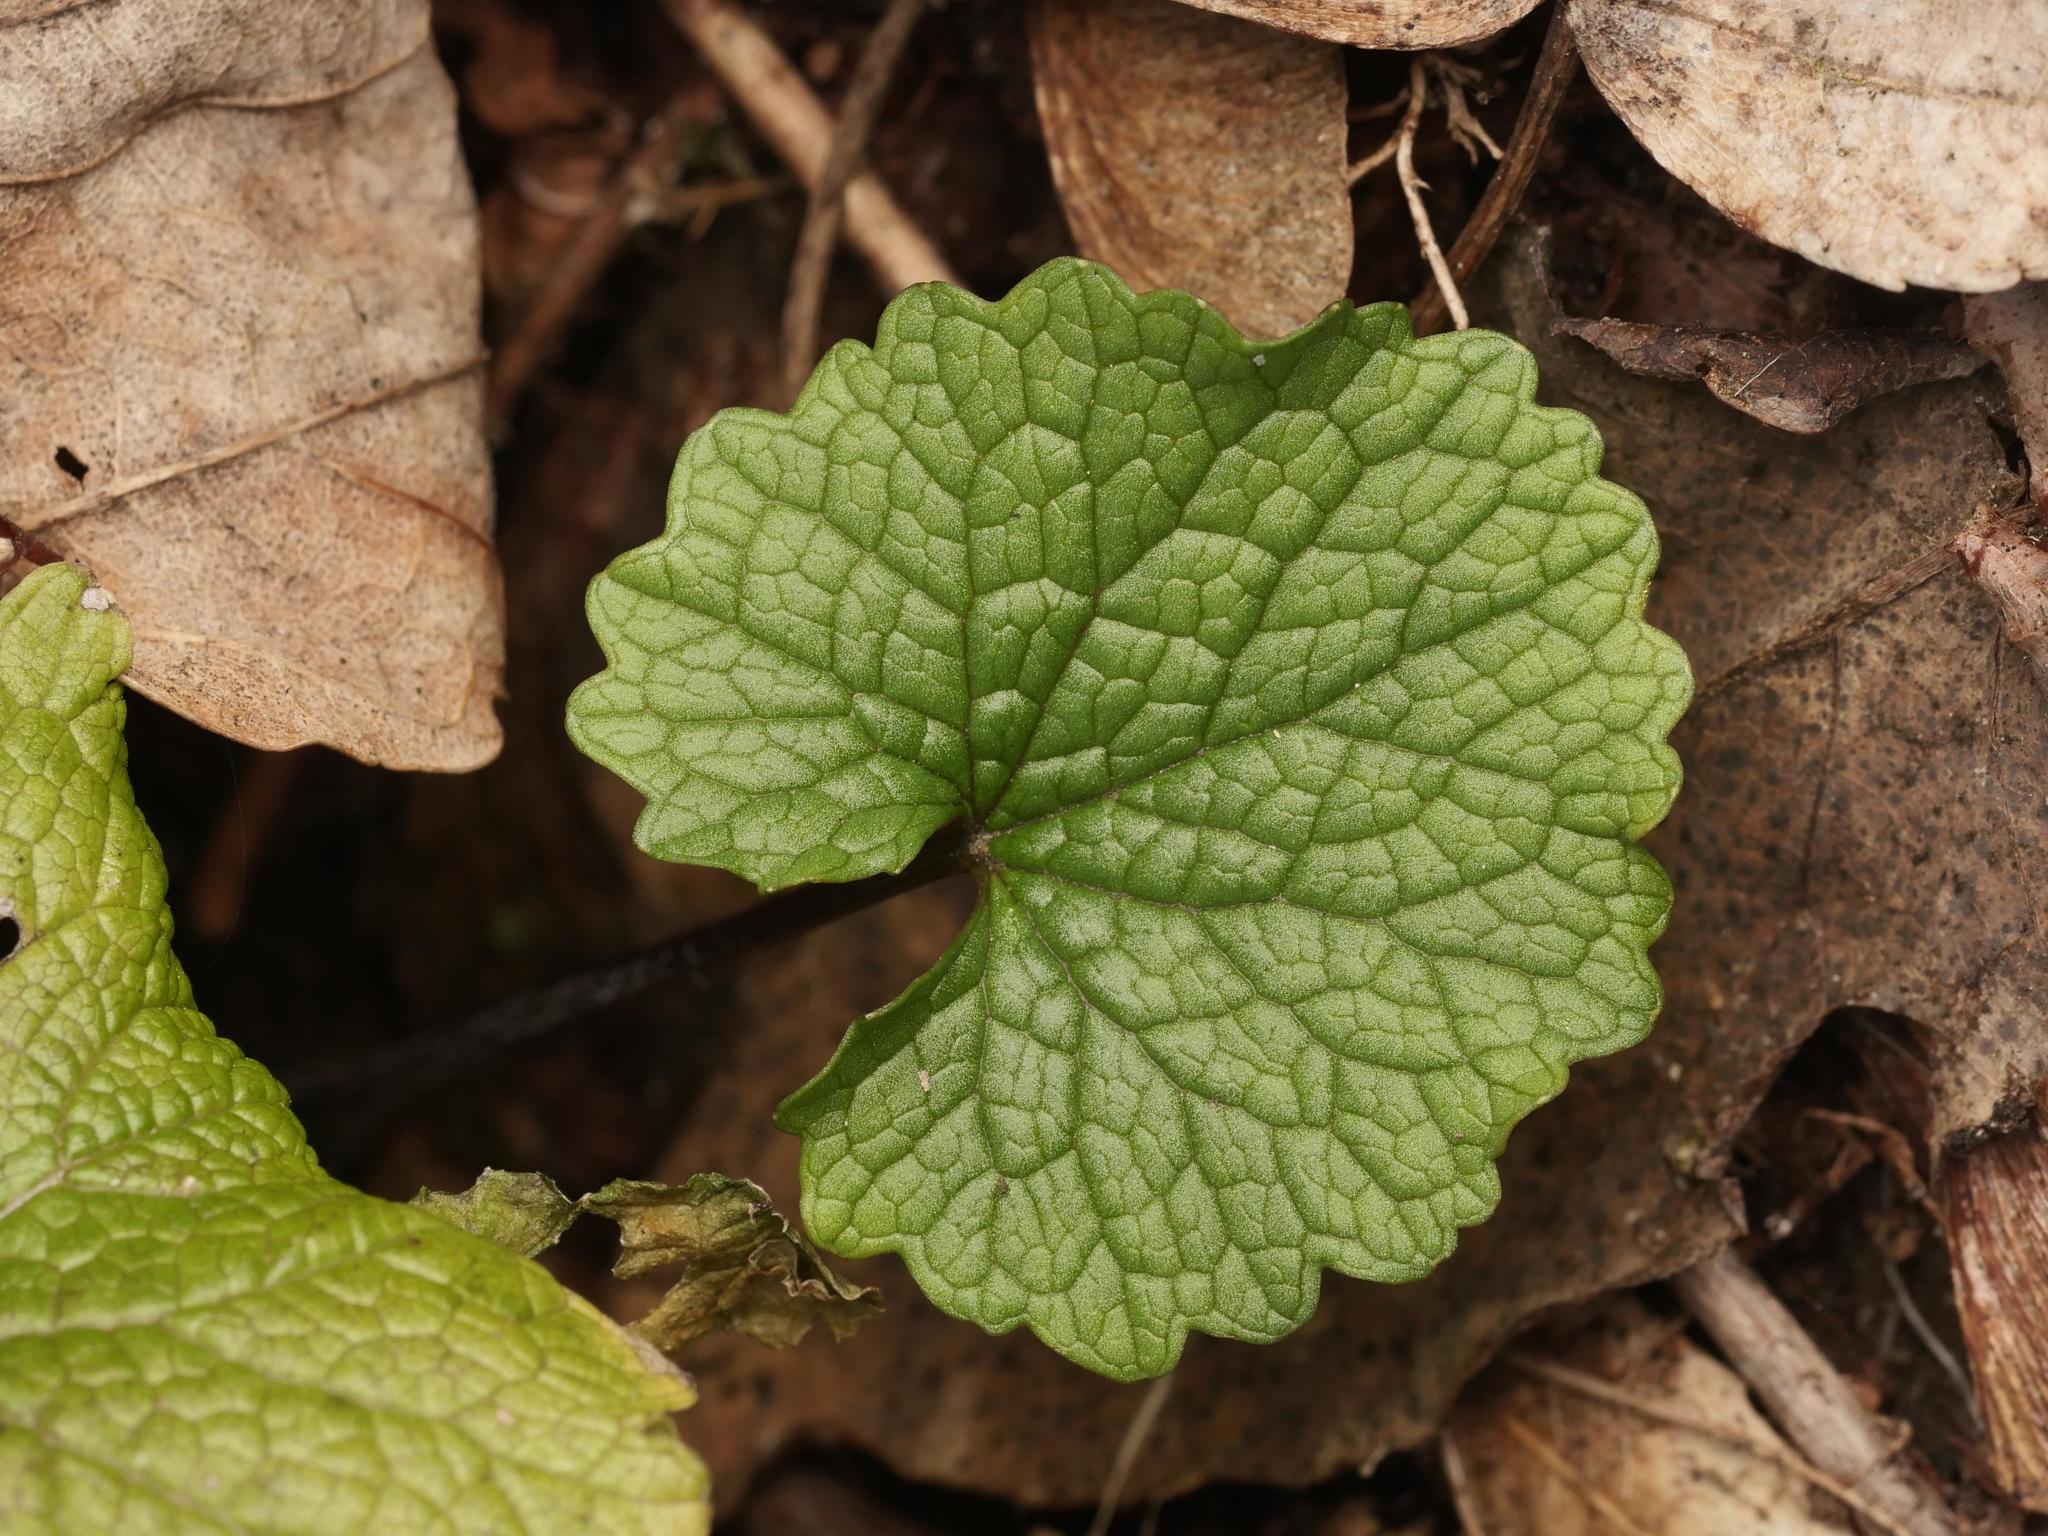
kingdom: Plantae
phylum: Tracheophyta
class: Magnoliopsida
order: Brassicales
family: Brassicaceae
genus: Alliaria
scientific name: Alliaria petiolata
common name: Garlic mustard
